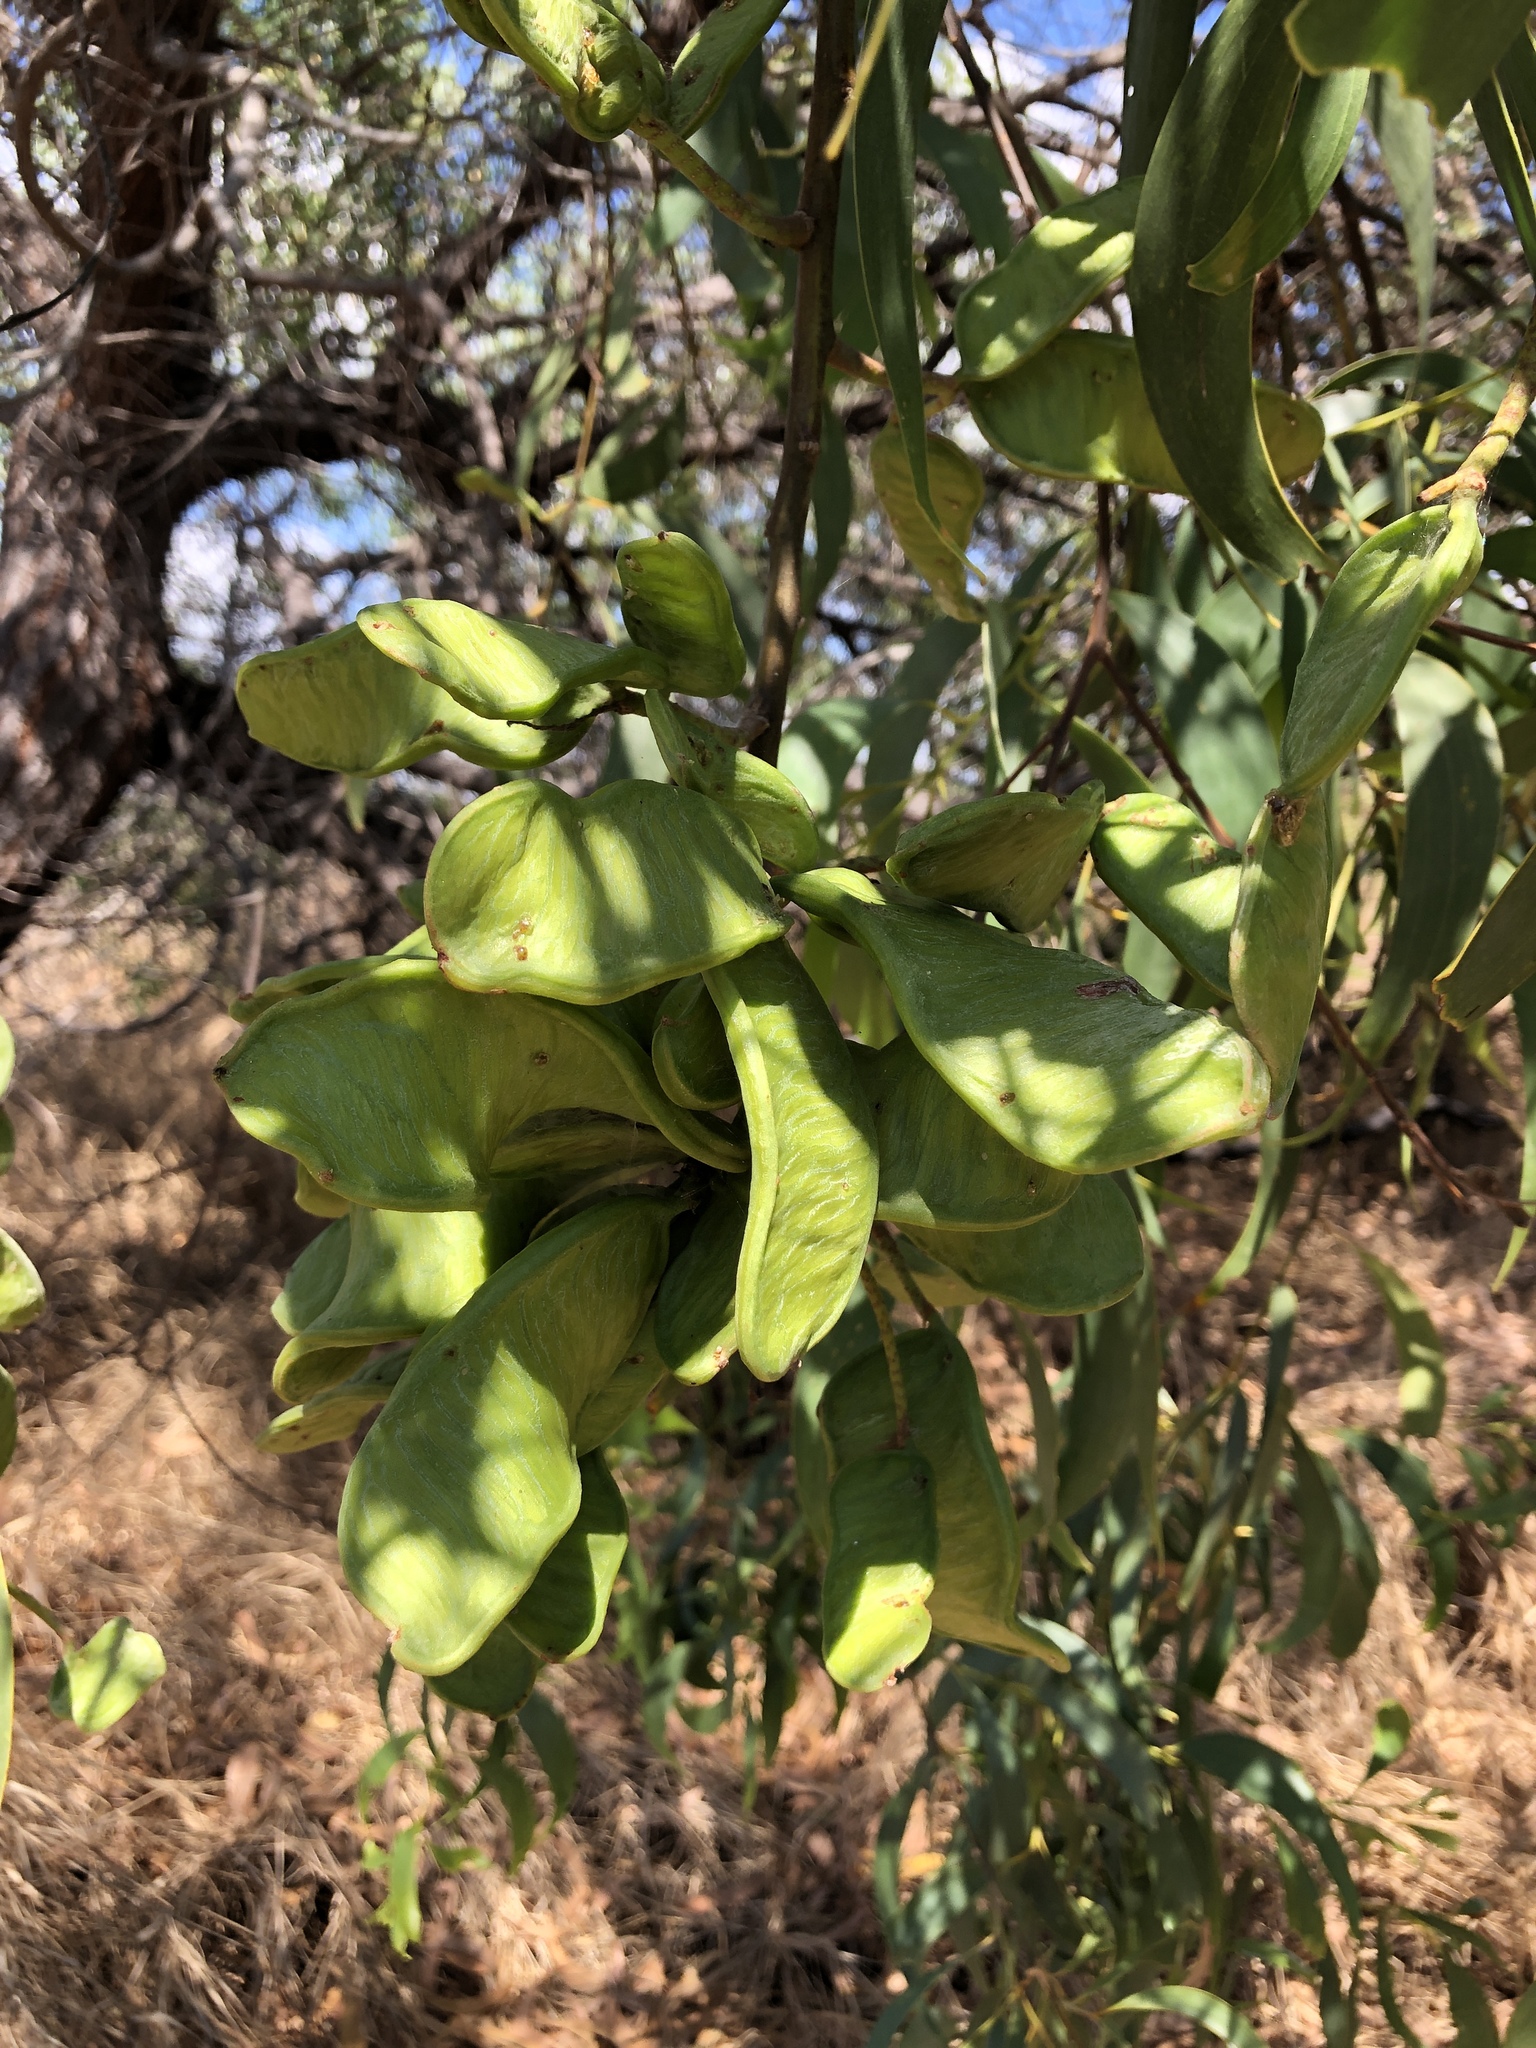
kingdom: Plantae
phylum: Tracheophyta
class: Magnoliopsida
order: Fabales
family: Fabaceae
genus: Acacia
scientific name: Acacia crassicarpa
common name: Northern wattle
